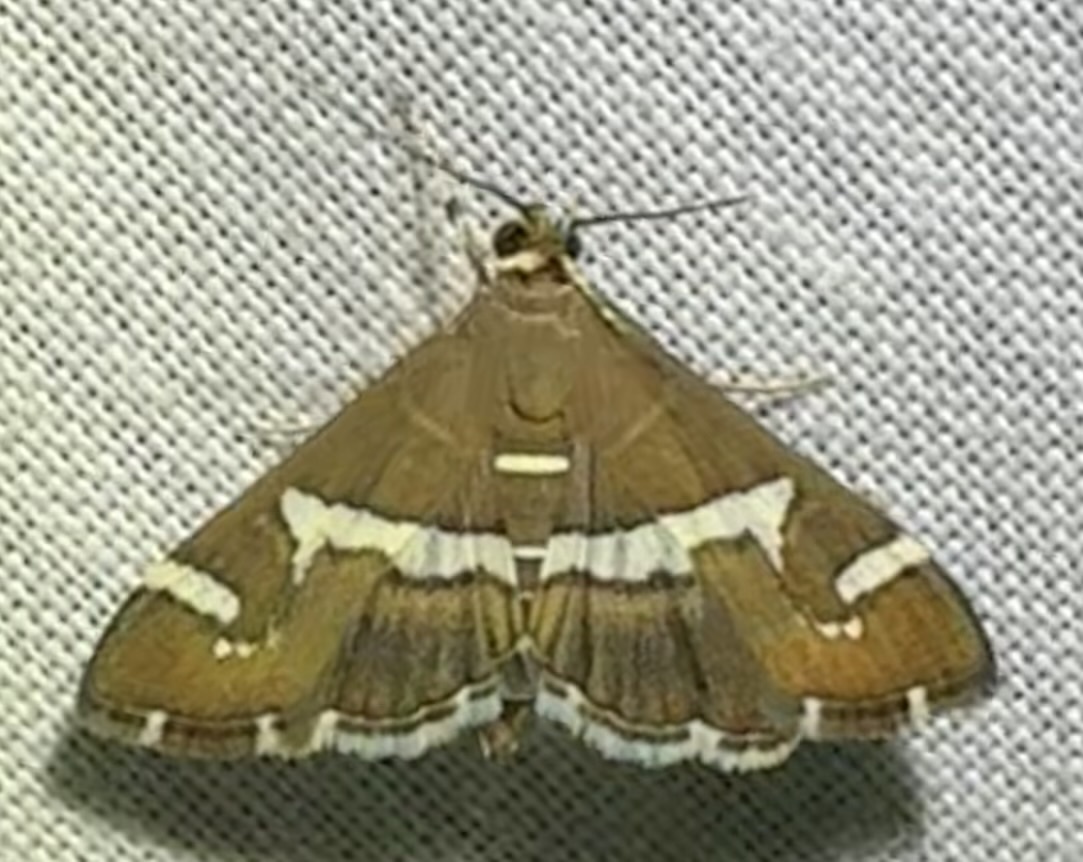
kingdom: Animalia
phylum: Arthropoda
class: Insecta
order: Lepidoptera
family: Crambidae
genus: Spoladea
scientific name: Spoladea recurvalis
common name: Beet webworm moth
